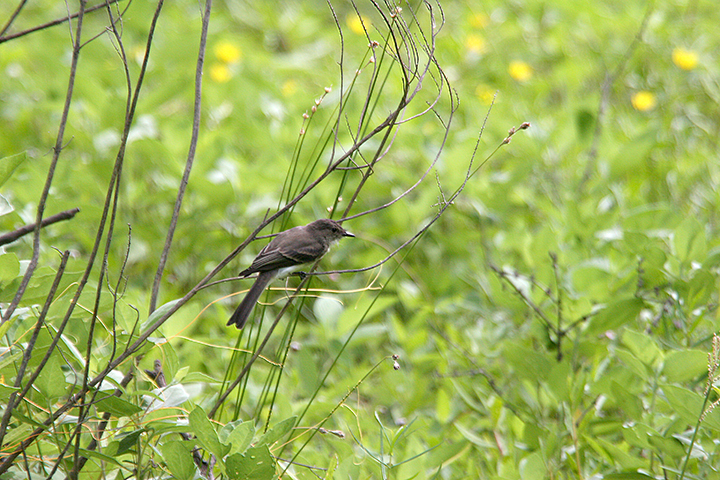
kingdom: Animalia
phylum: Chordata
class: Aves
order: Passeriformes
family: Tyrannidae
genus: Sayornis
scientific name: Sayornis phoebe
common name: Eastern phoebe
